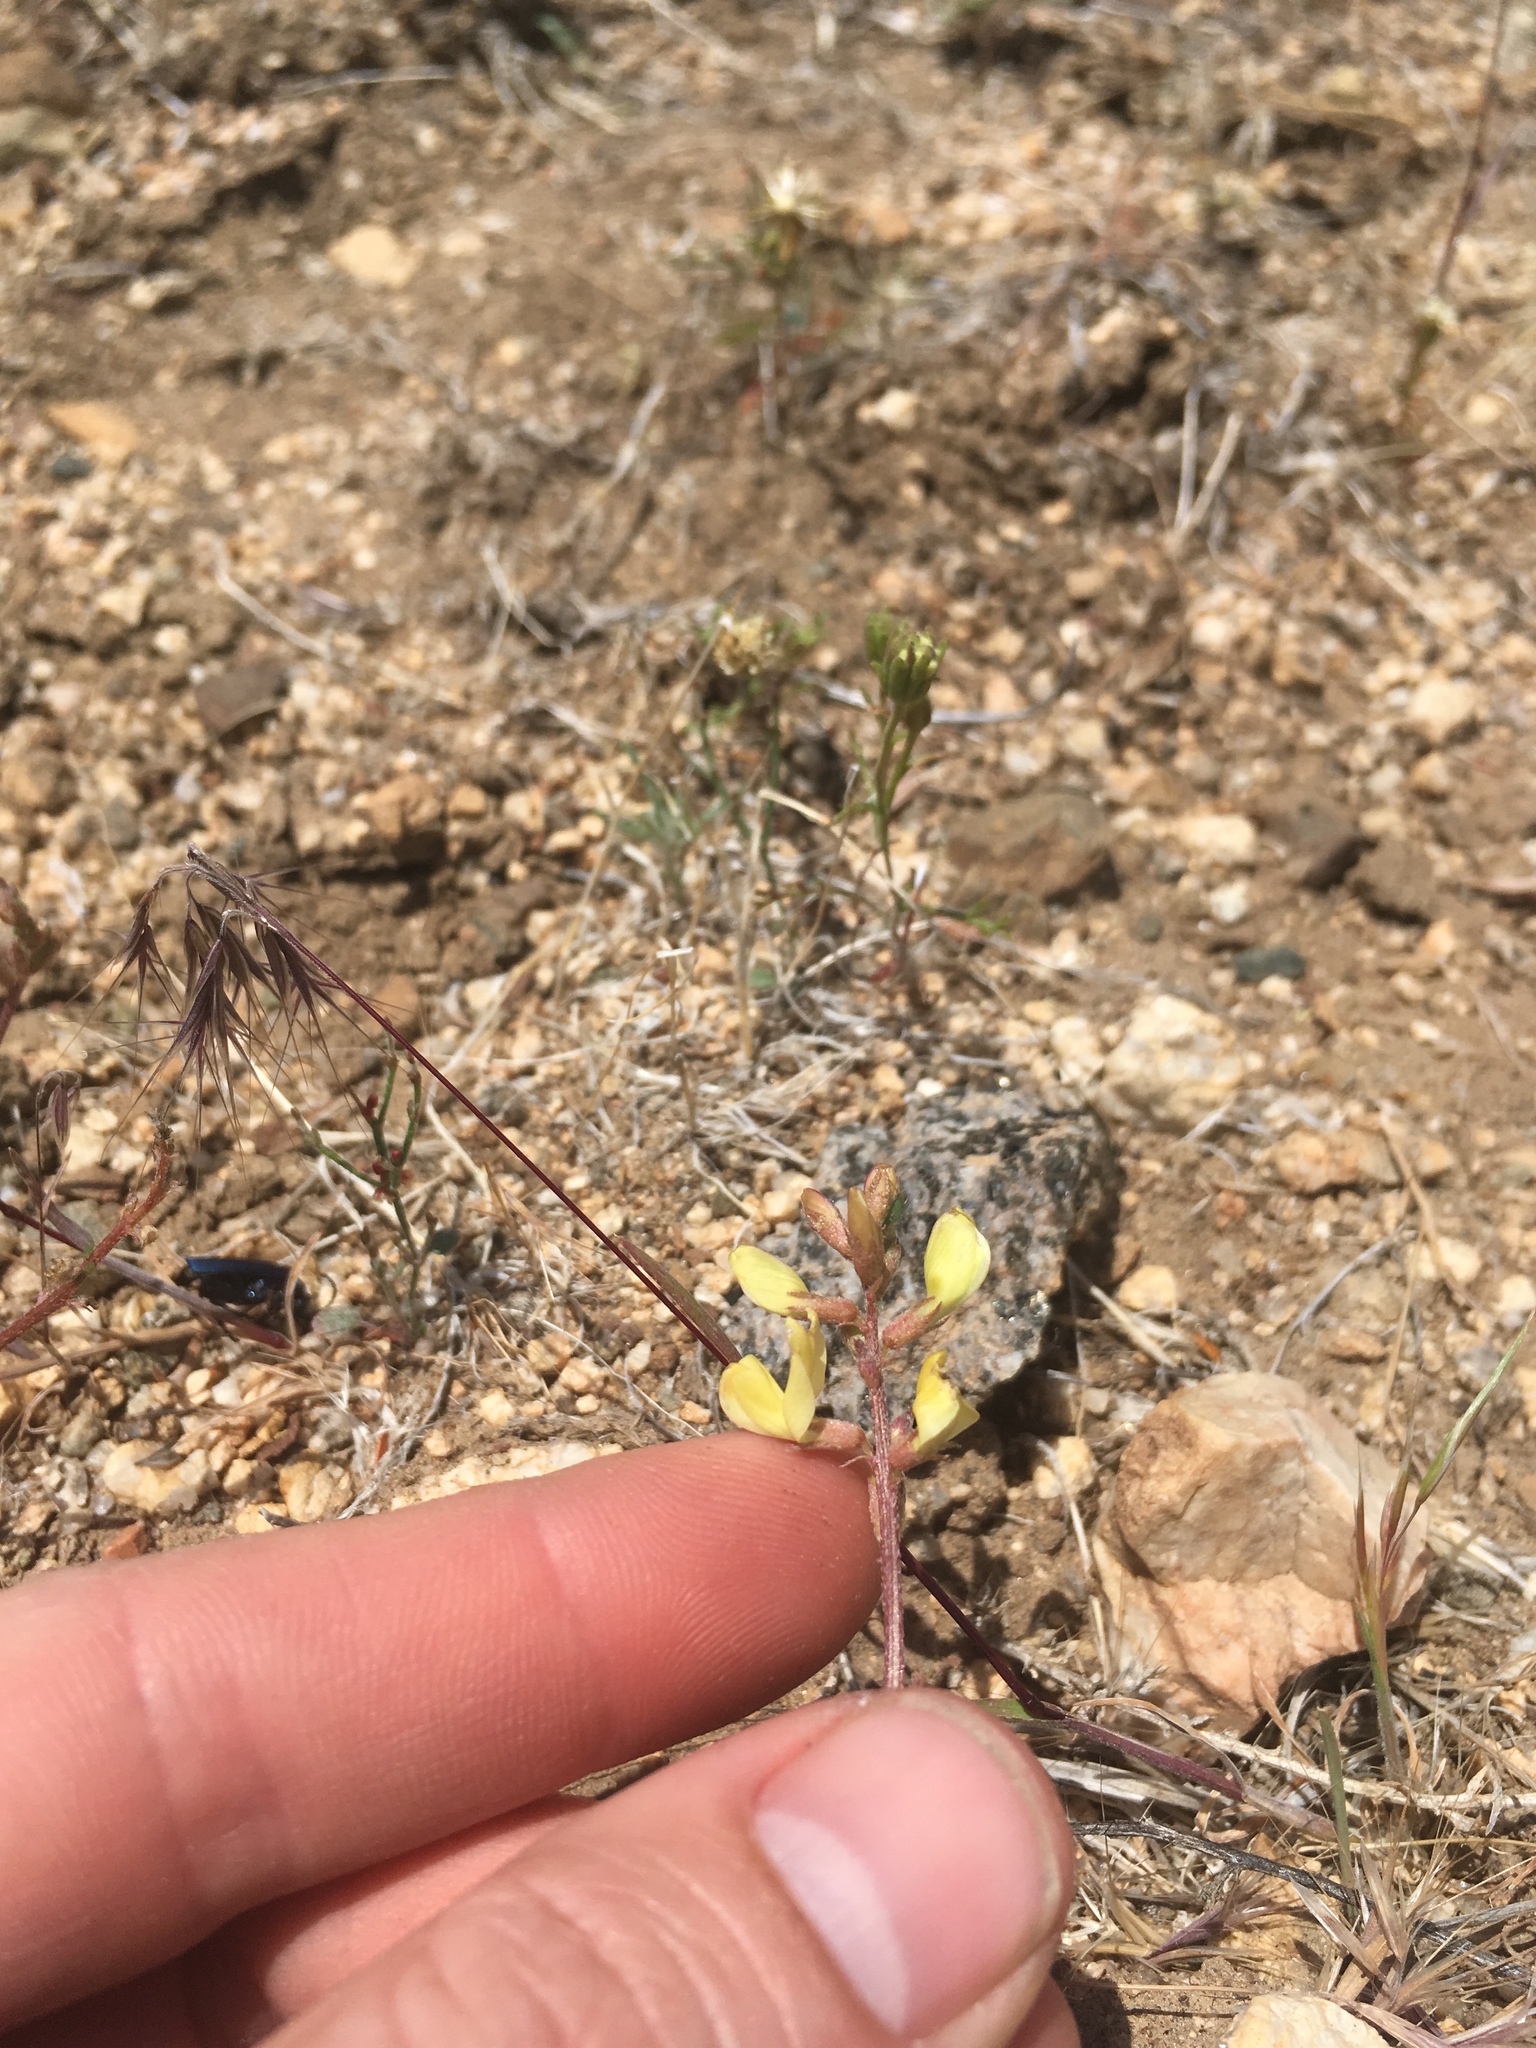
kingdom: Plantae
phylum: Tracheophyta
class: Magnoliopsida
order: Fabales
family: Fabaceae
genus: Astragalus
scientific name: Astragalus inyoensis
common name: Inyo locoweed
